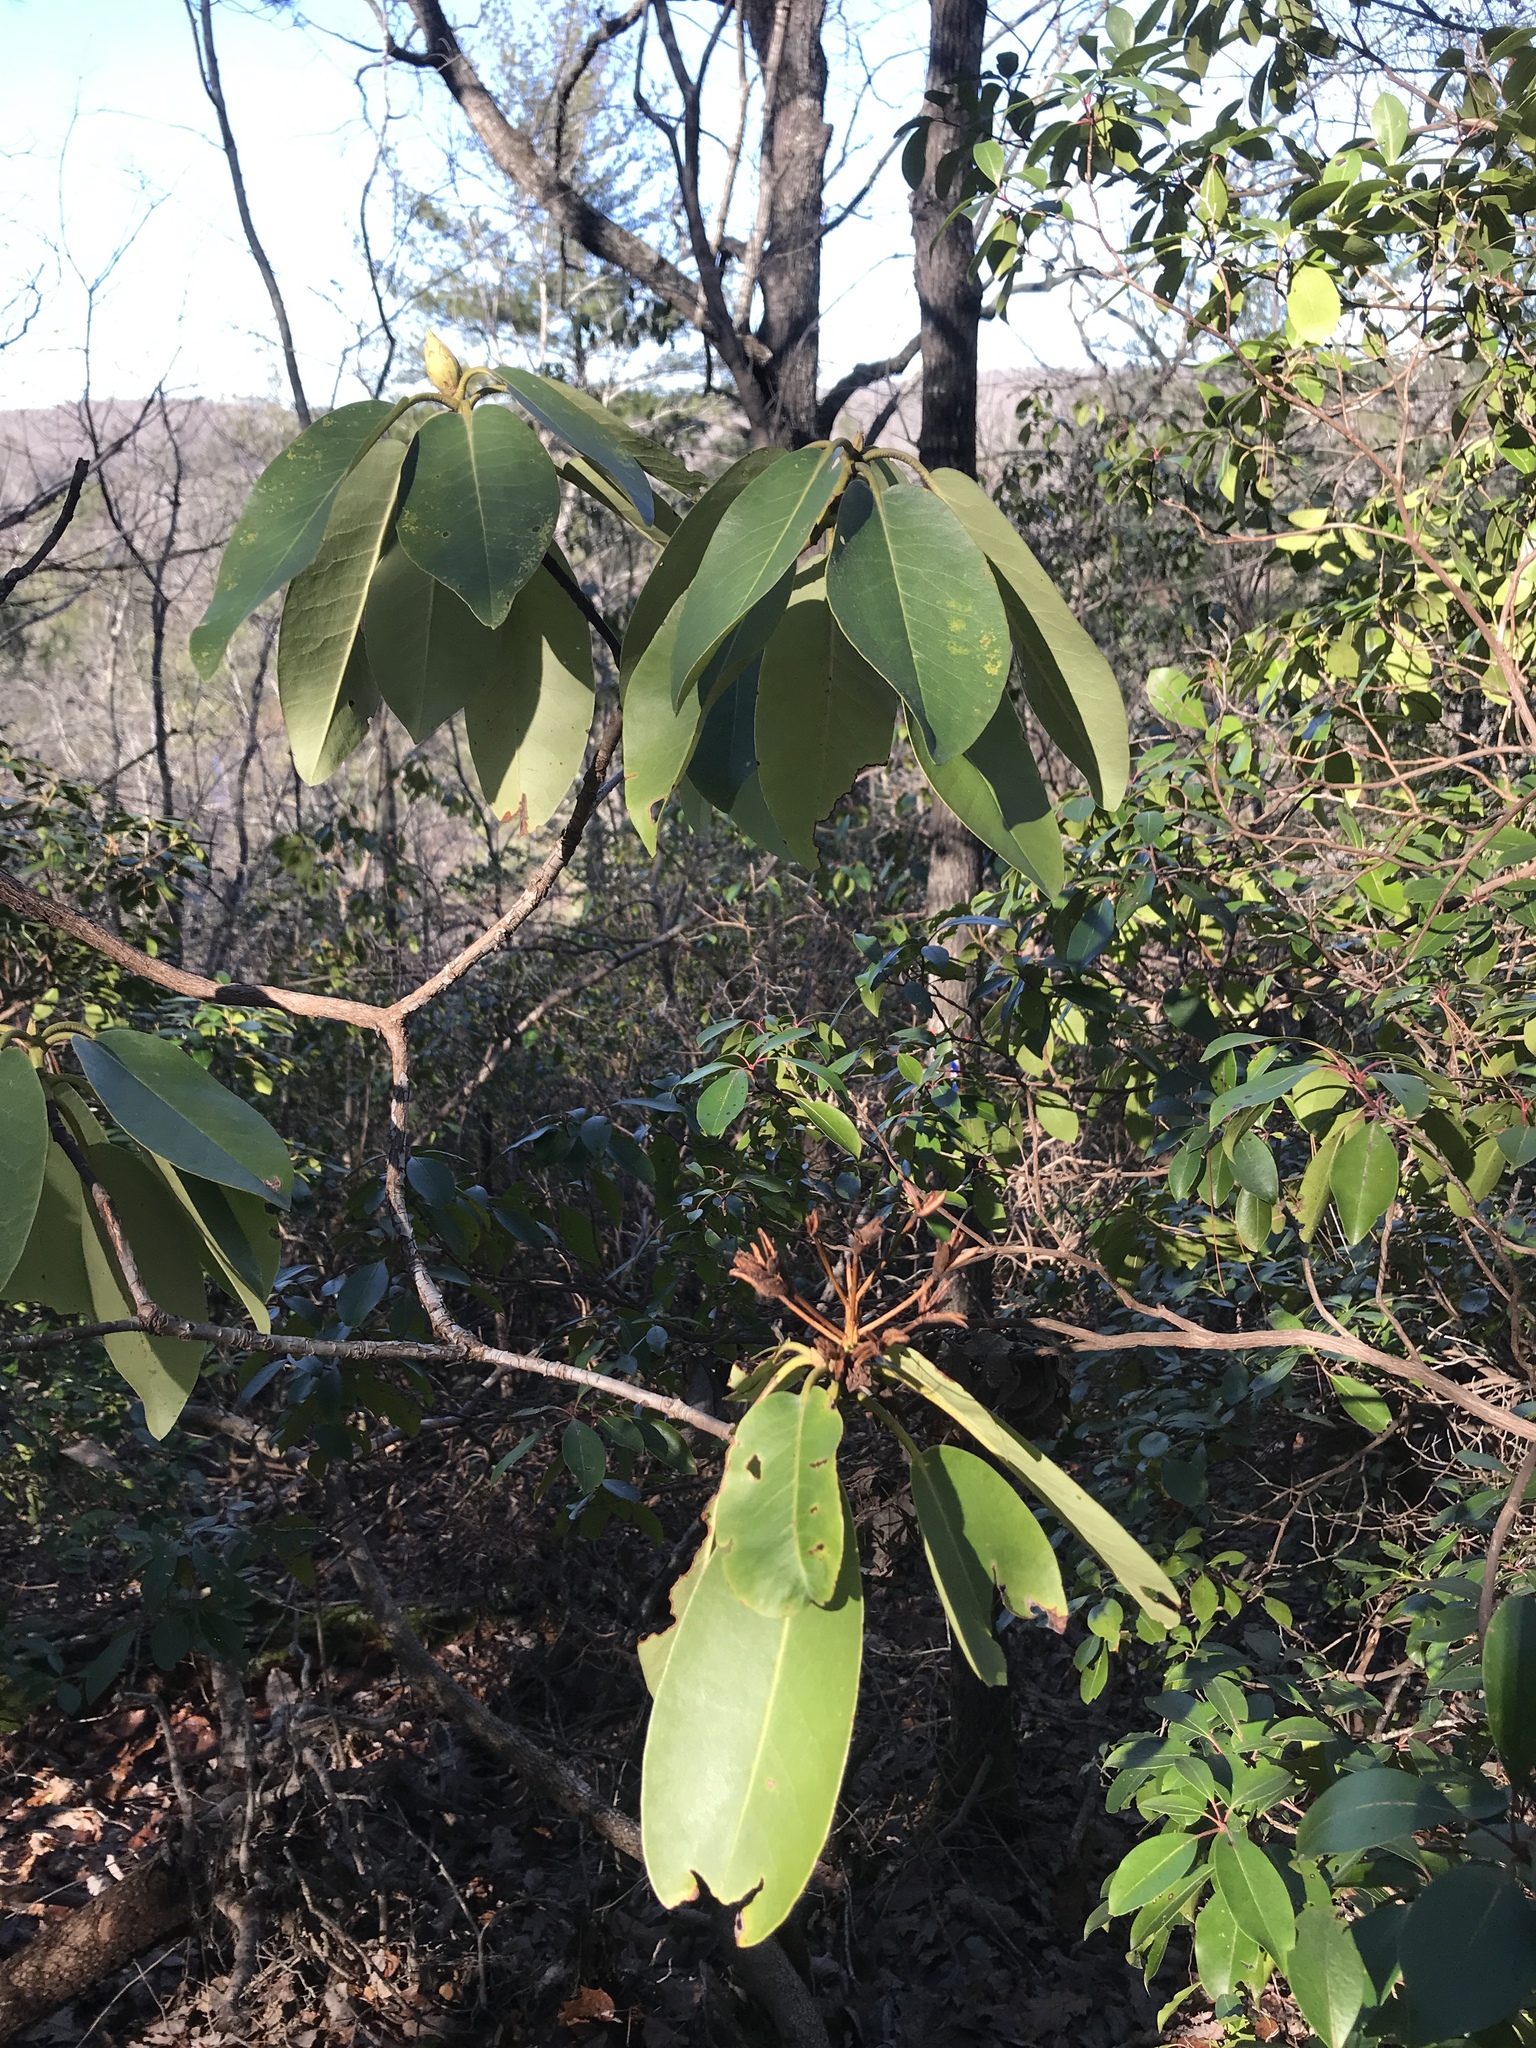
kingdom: Plantae
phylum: Tracheophyta
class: Magnoliopsida
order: Ericales
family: Ericaceae
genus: Rhododendron
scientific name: Rhododendron catawbiense
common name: Catawba rhododendron
